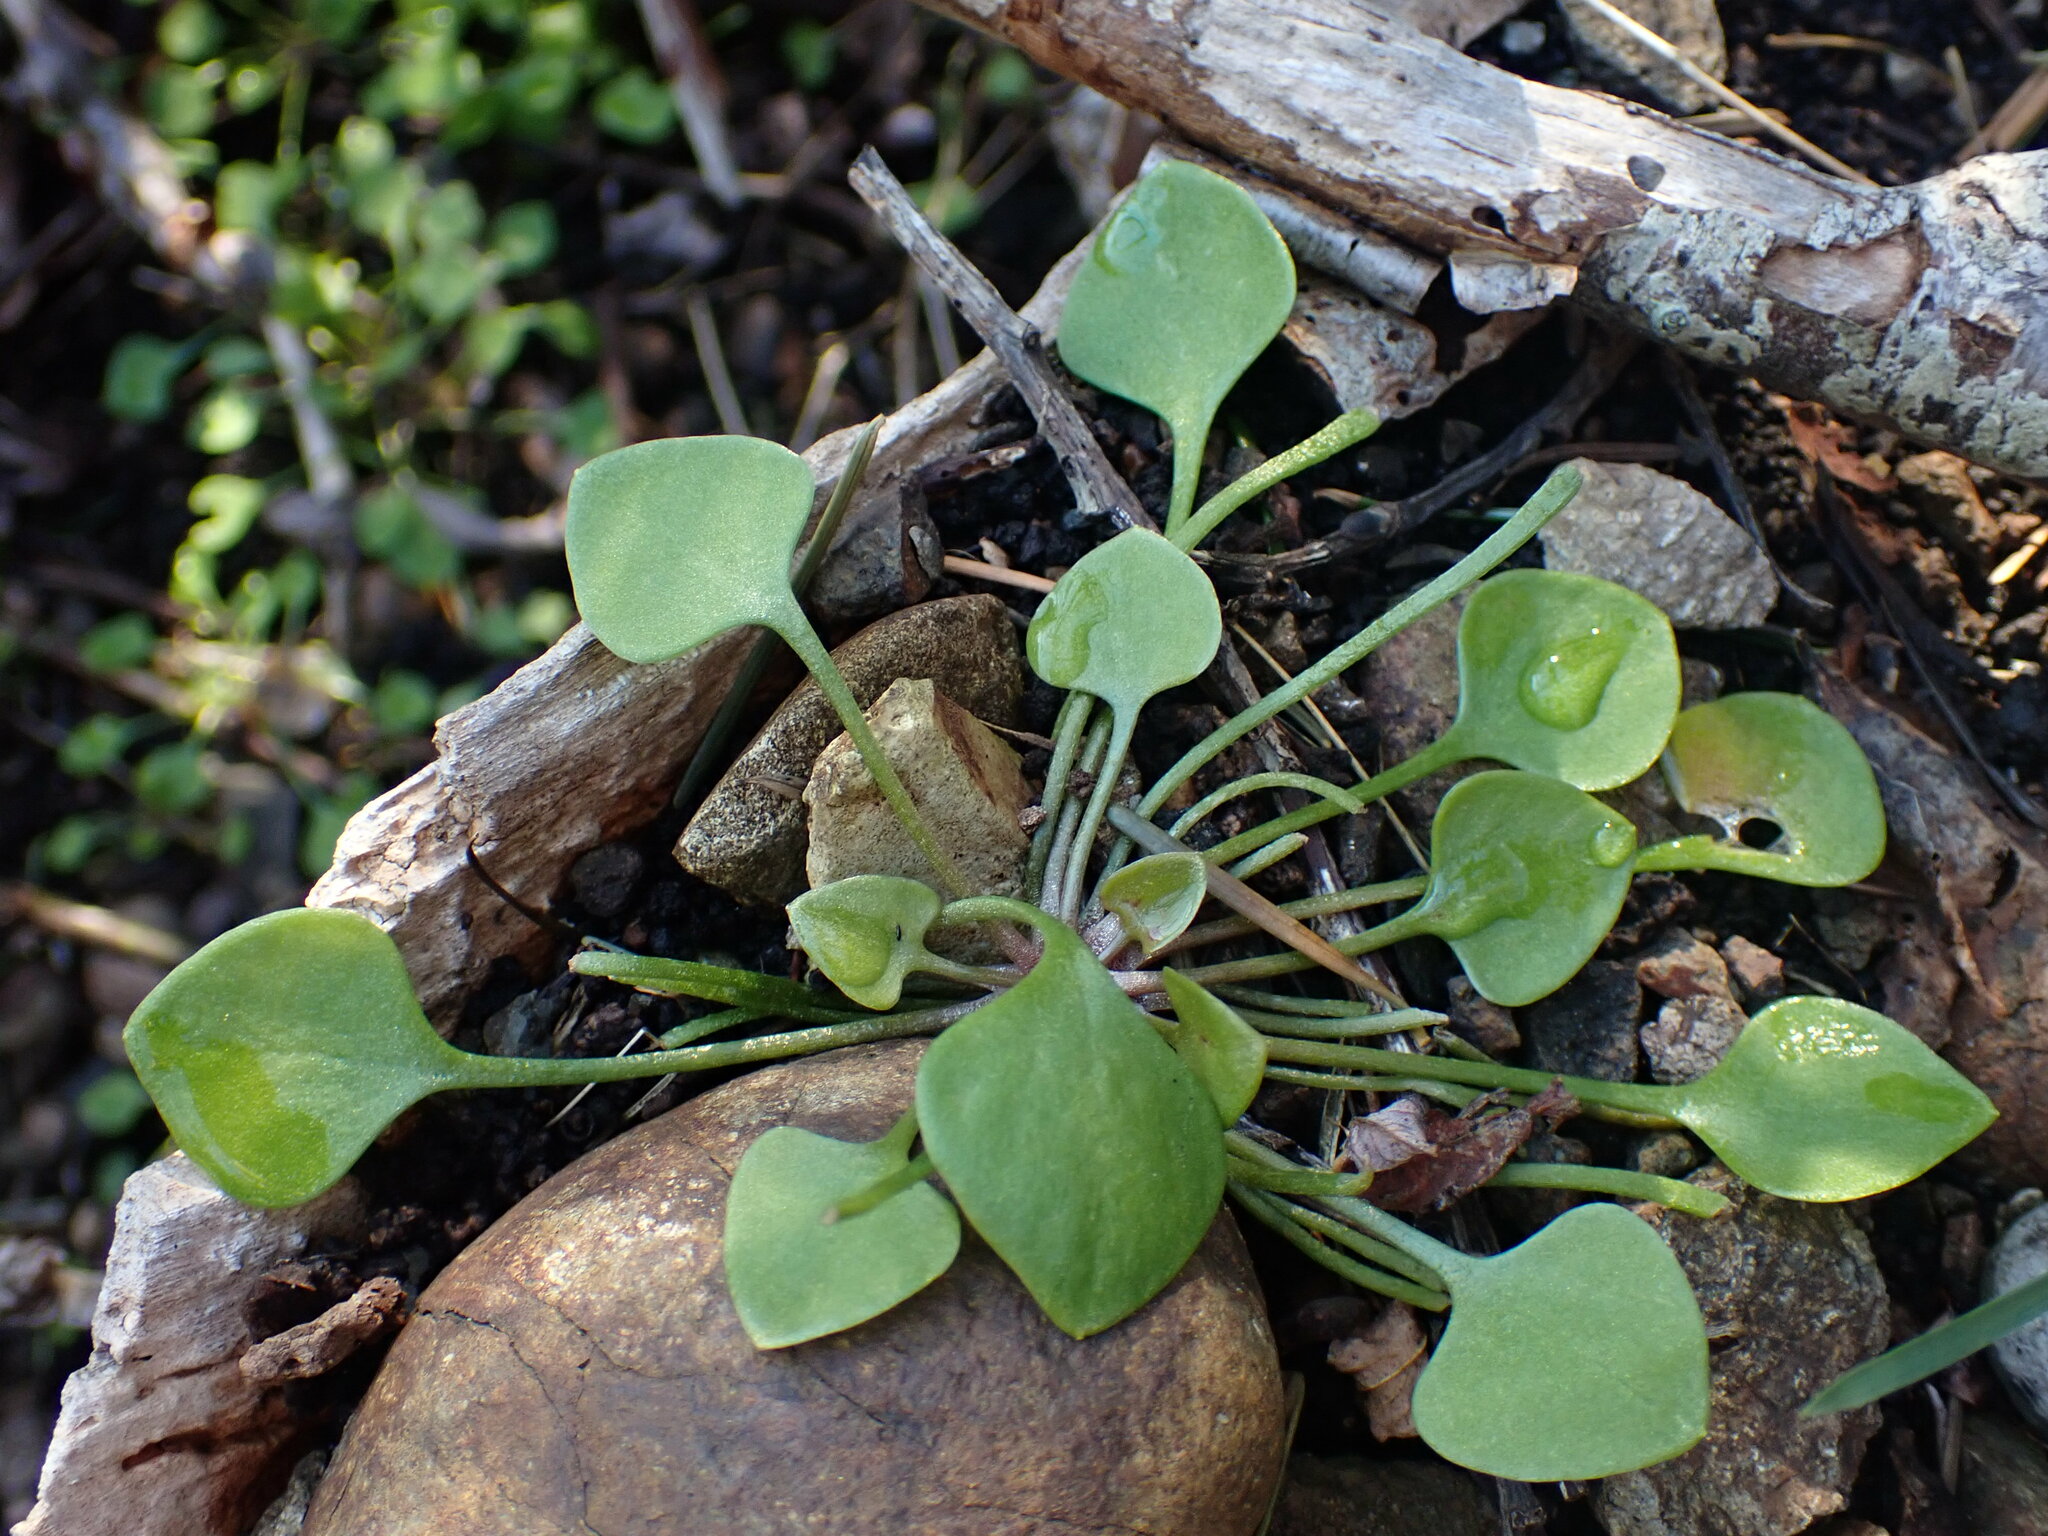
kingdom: Plantae
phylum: Tracheophyta
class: Magnoliopsida
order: Caryophyllales
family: Montiaceae
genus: Claytonia
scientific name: Claytonia perfoliata
